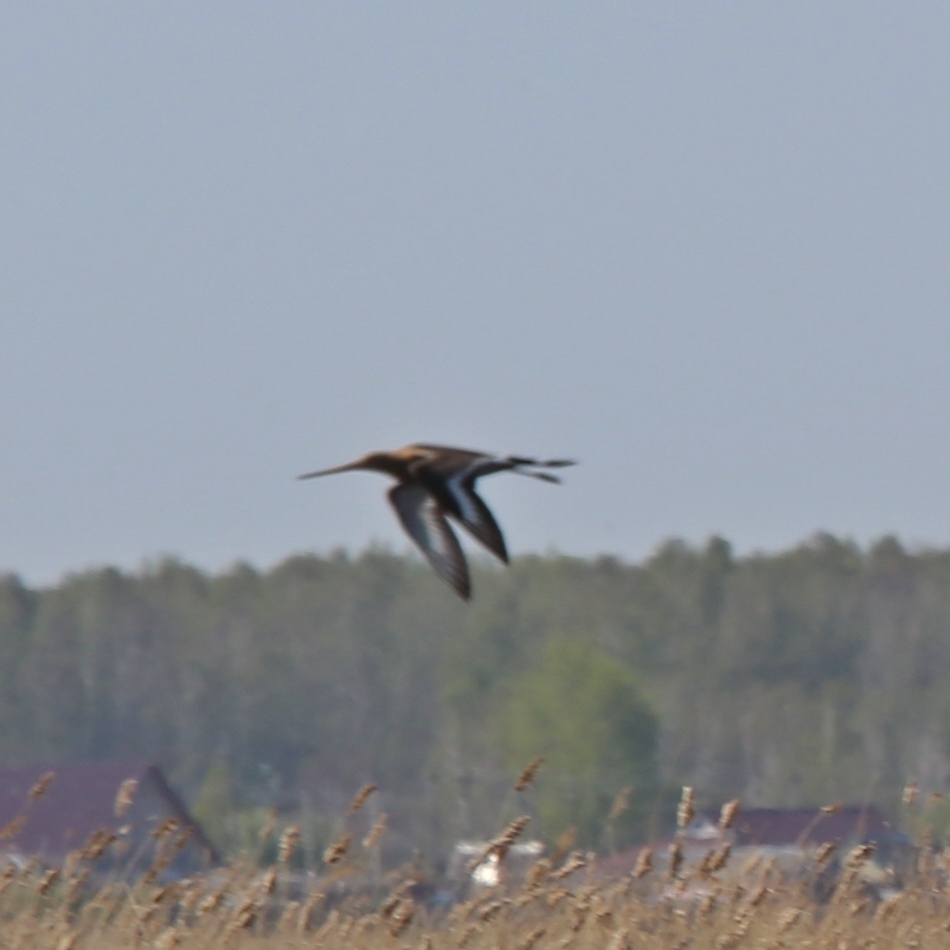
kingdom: Animalia
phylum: Chordata
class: Aves
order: Charadriiformes
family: Scolopacidae
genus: Limosa
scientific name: Limosa limosa
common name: Black-tailed godwit
